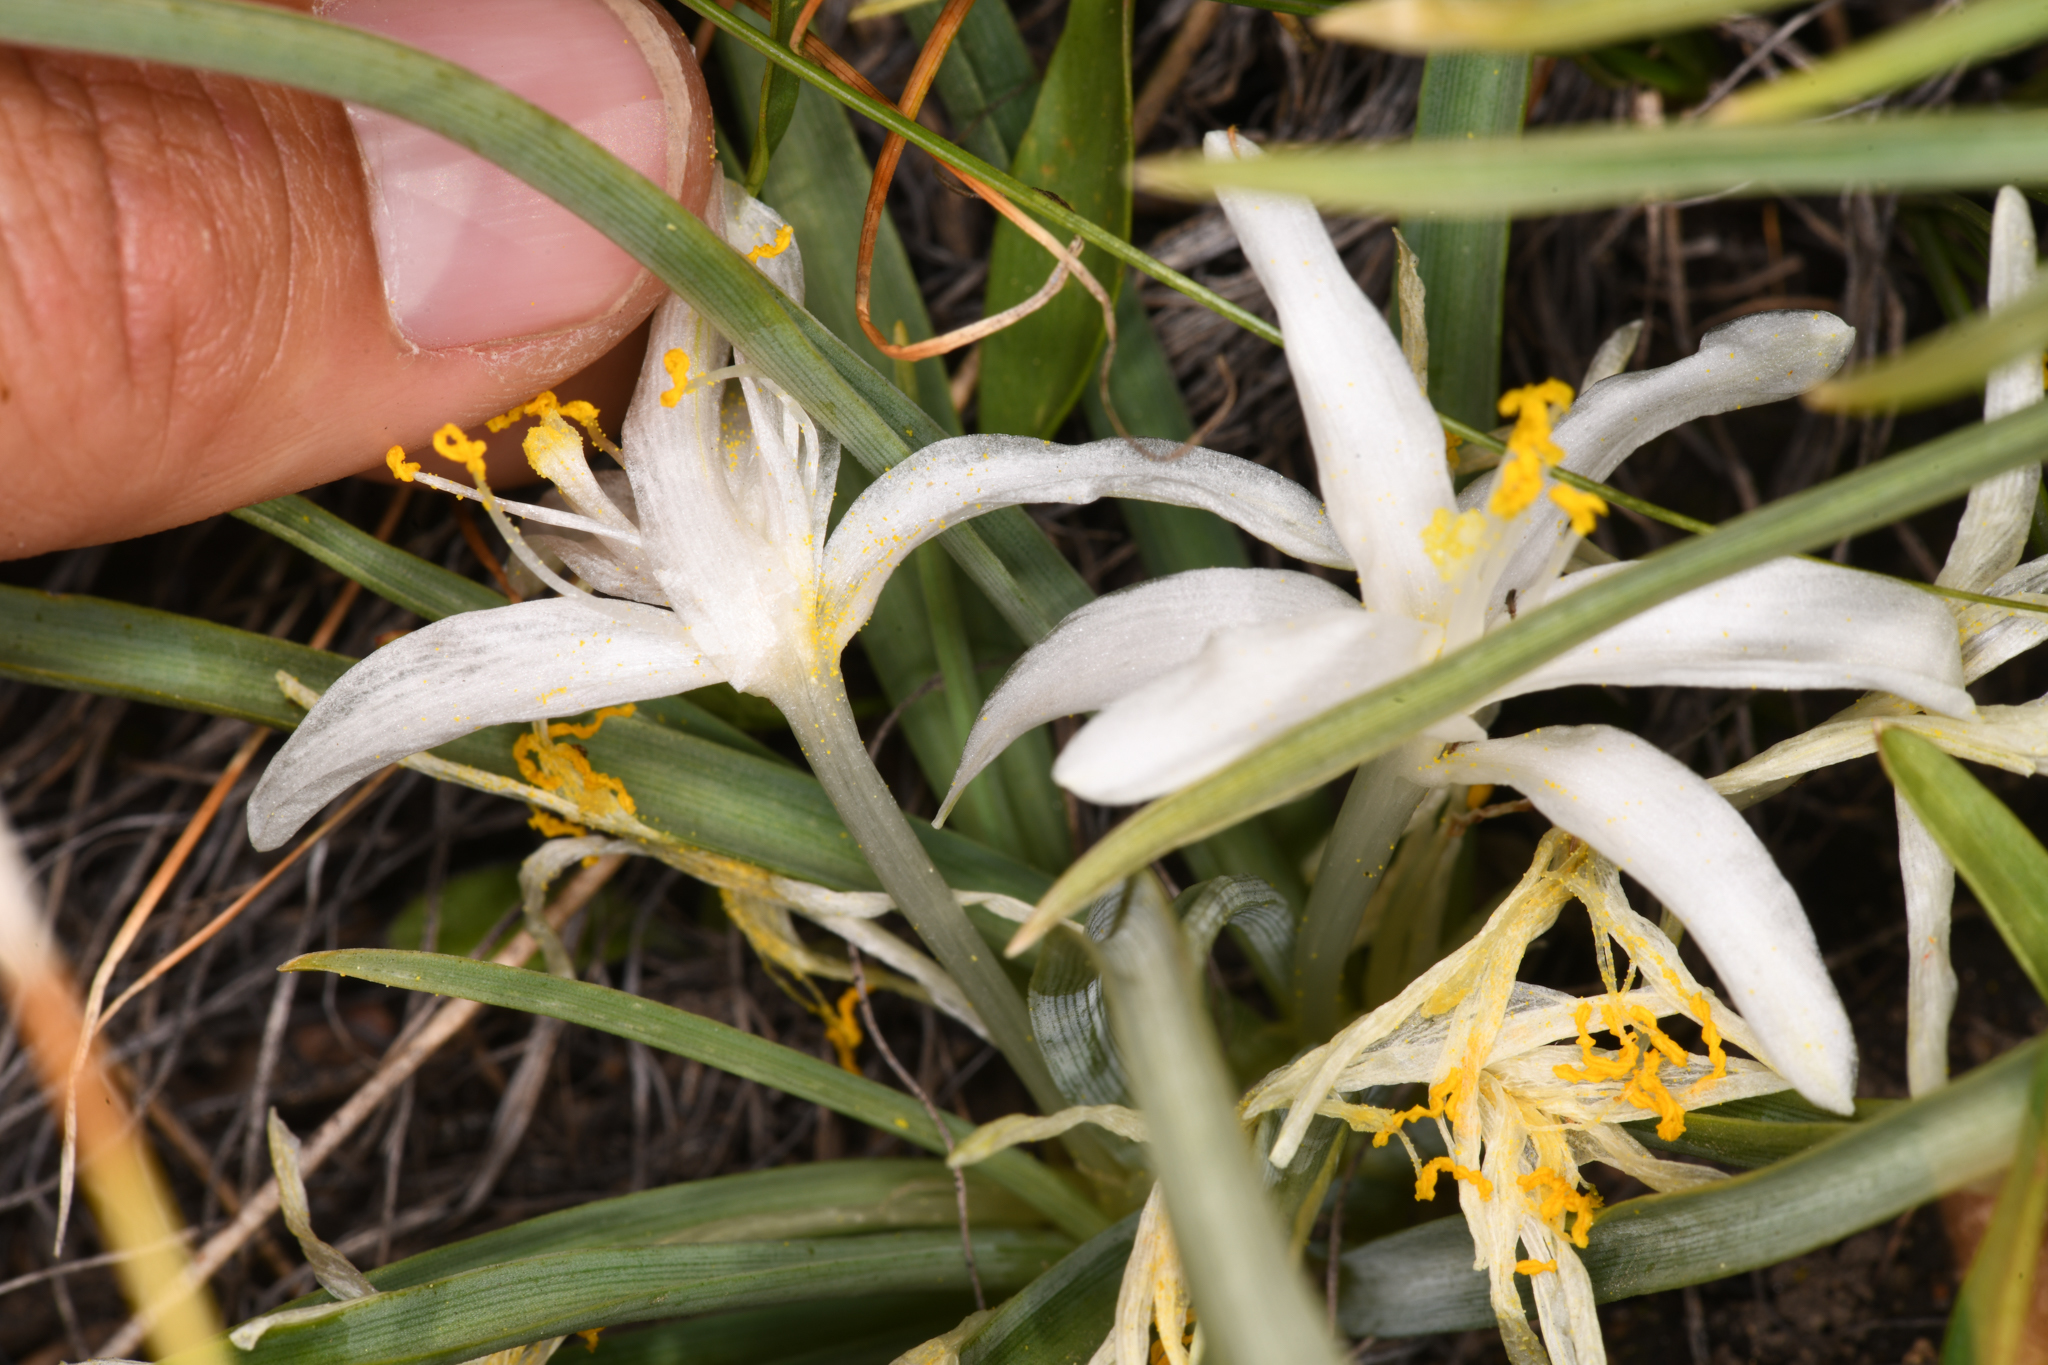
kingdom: Plantae
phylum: Tracheophyta
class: Liliopsida
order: Asparagales
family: Asparagaceae
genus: Leucocrinum
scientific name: Leucocrinum montanum
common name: Mountain-lily
